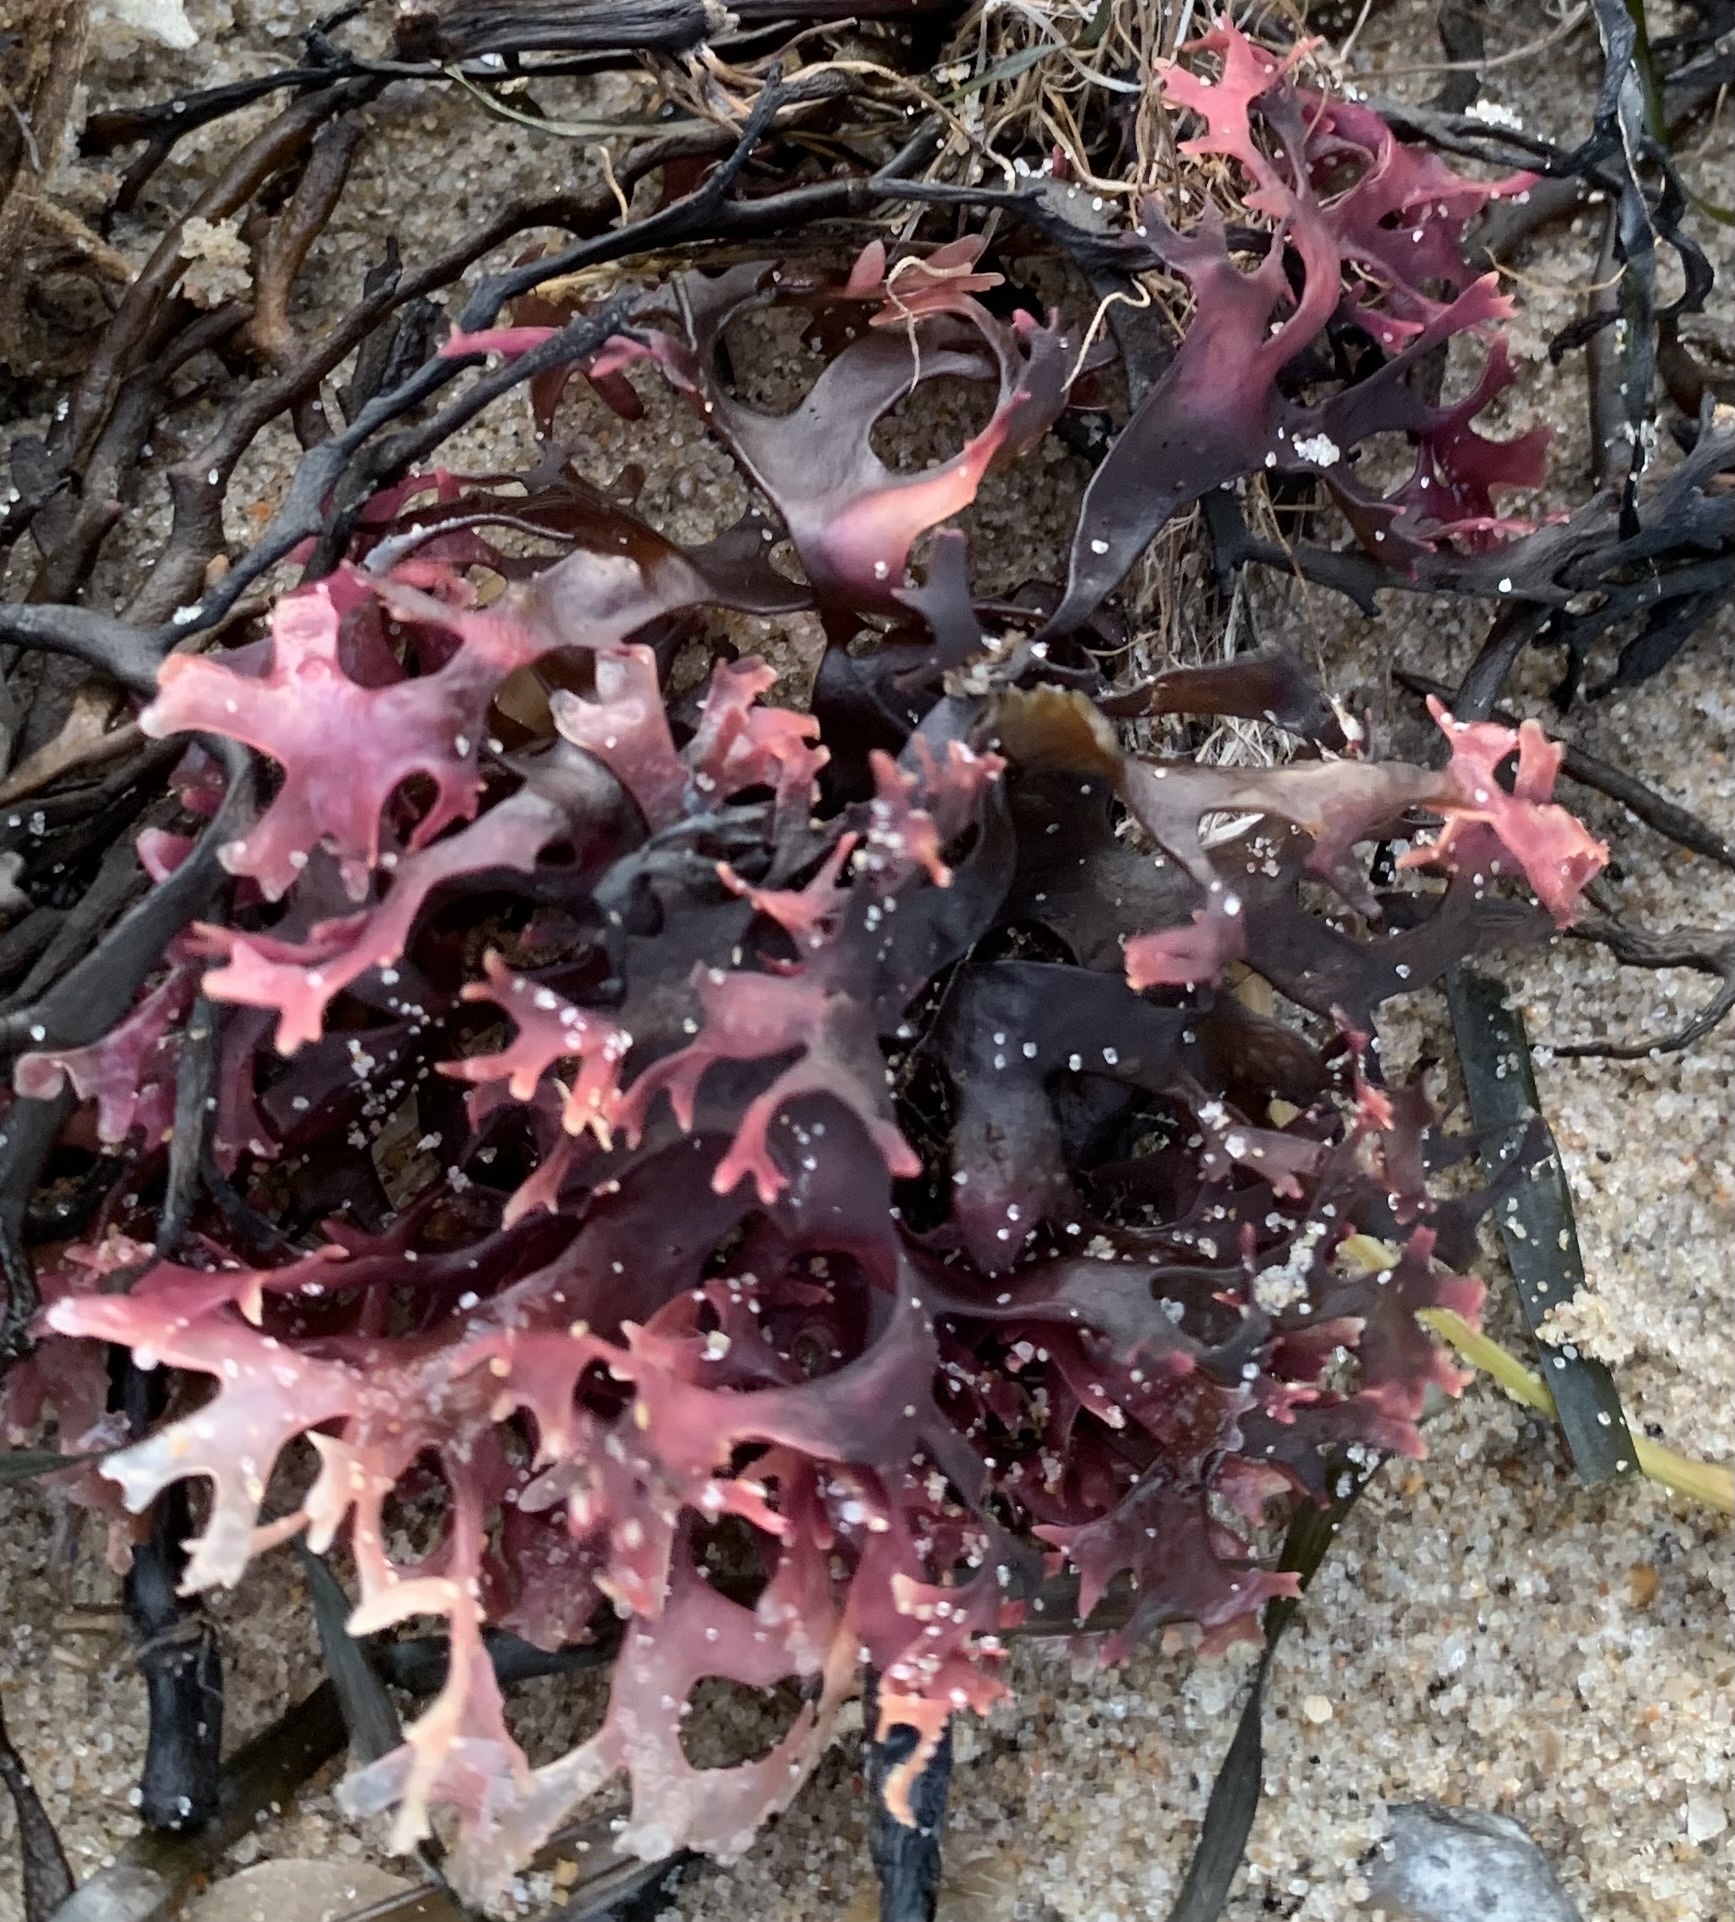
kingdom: Plantae
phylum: Rhodophyta
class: Florideophyceae
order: Gigartinales
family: Gigartinaceae
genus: Chondrus
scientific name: Chondrus crispus
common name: Carrageen
